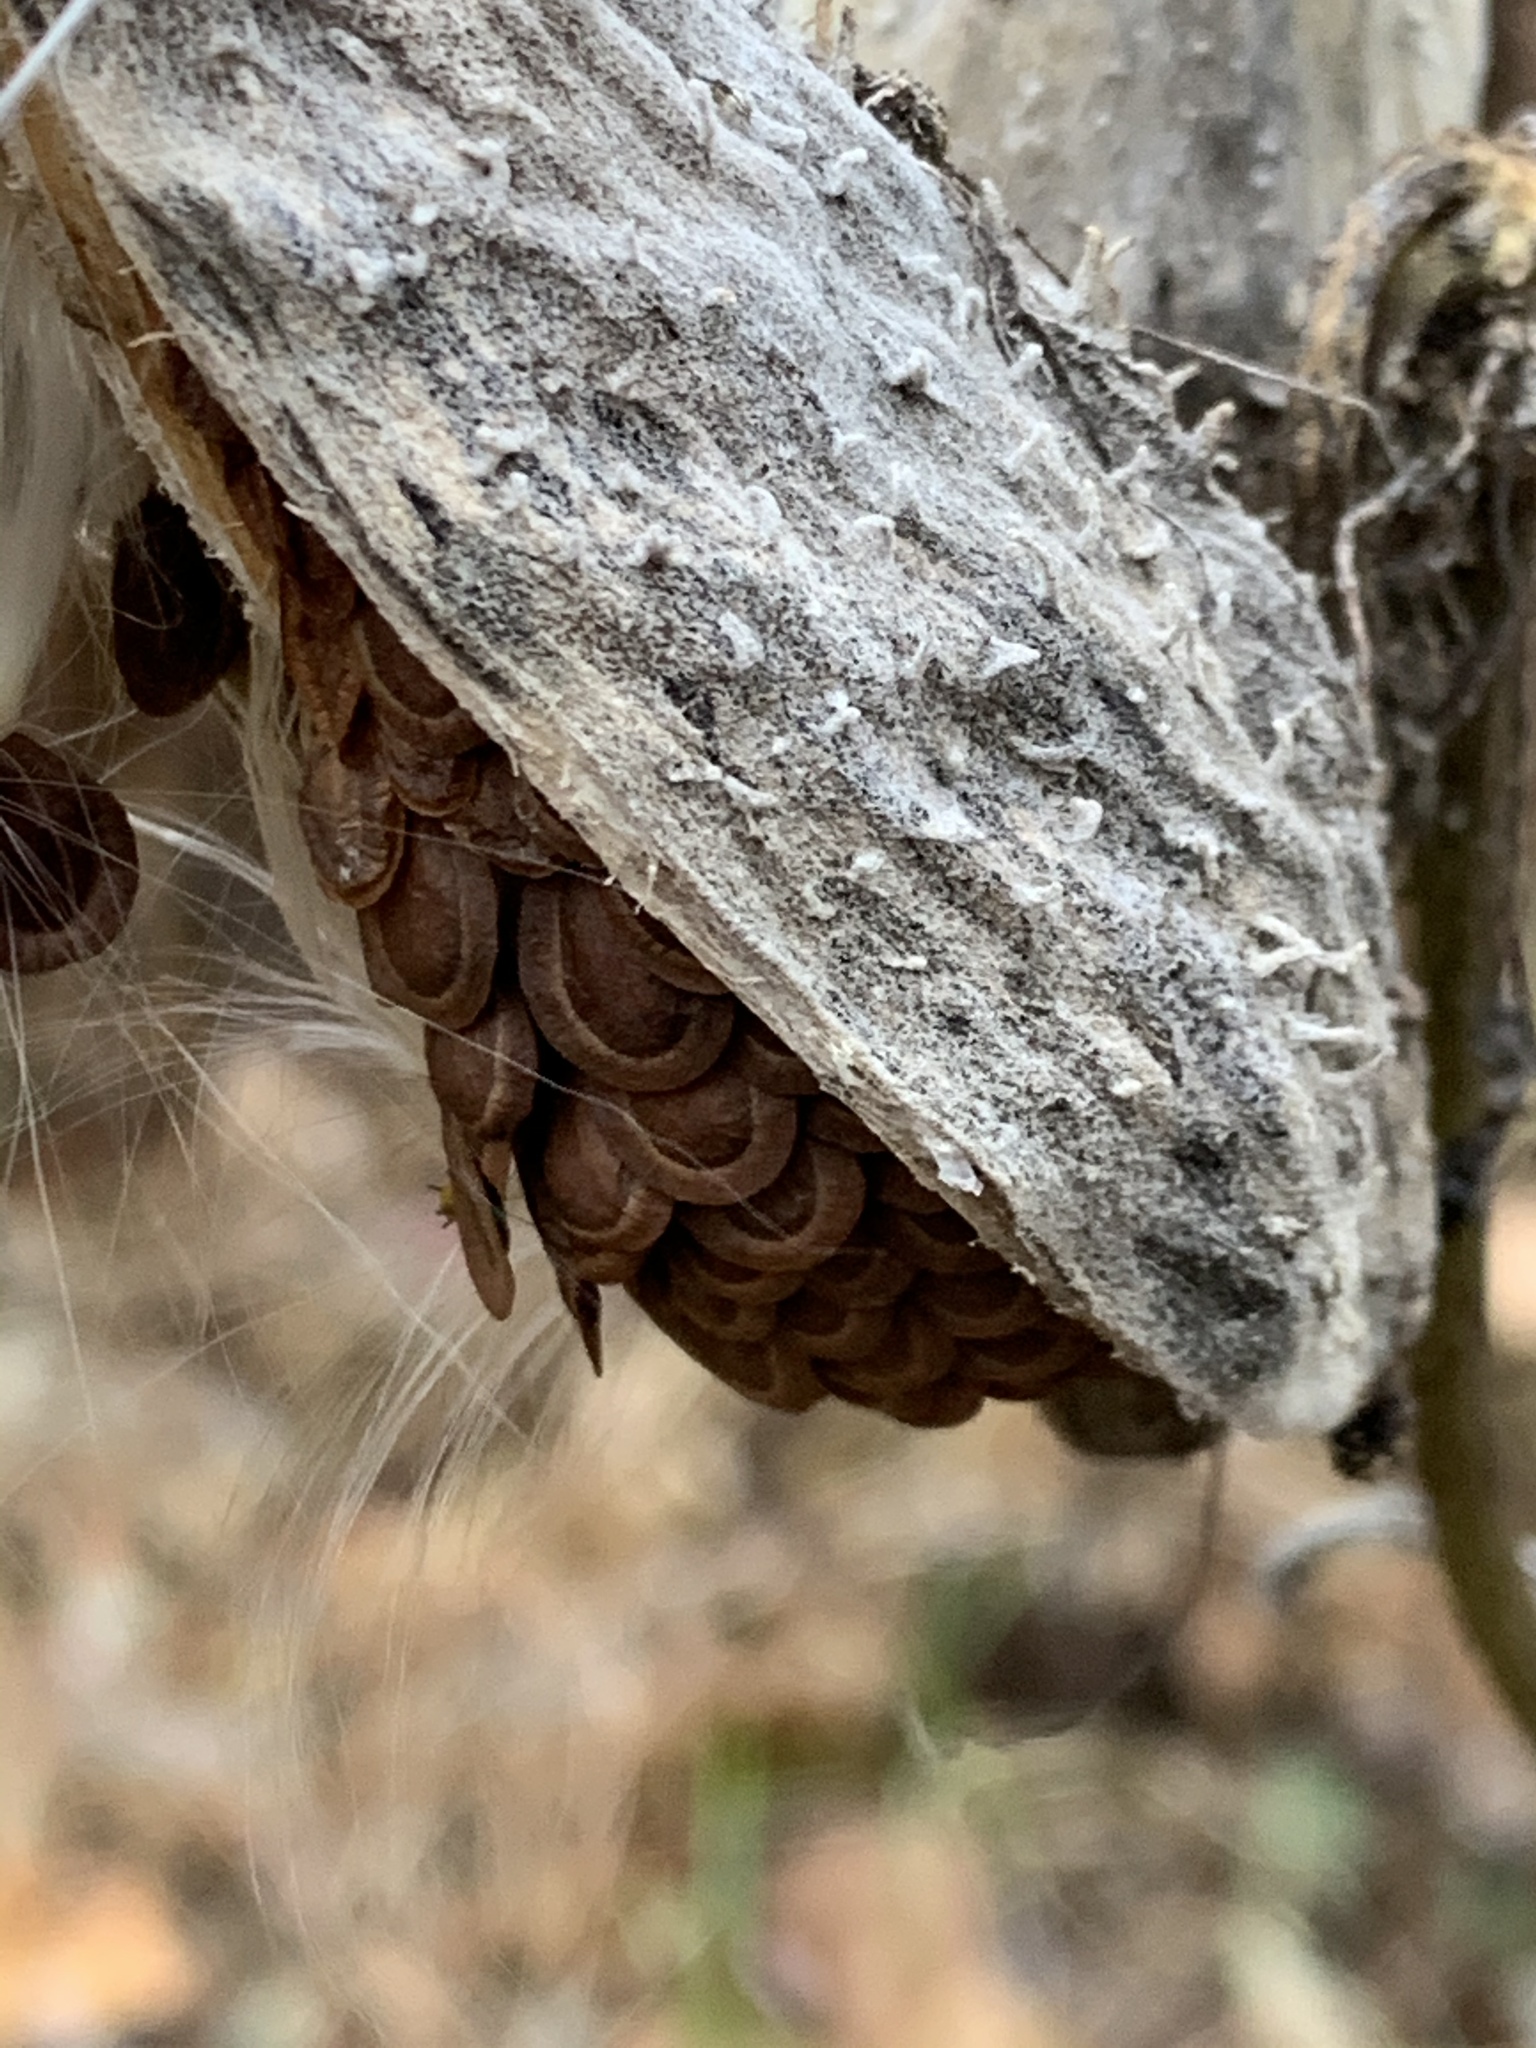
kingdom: Plantae
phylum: Tracheophyta
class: Magnoliopsida
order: Gentianales
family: Apocynaceae
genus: Asclepias
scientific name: Asclepias syriaca
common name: Common milkweed
